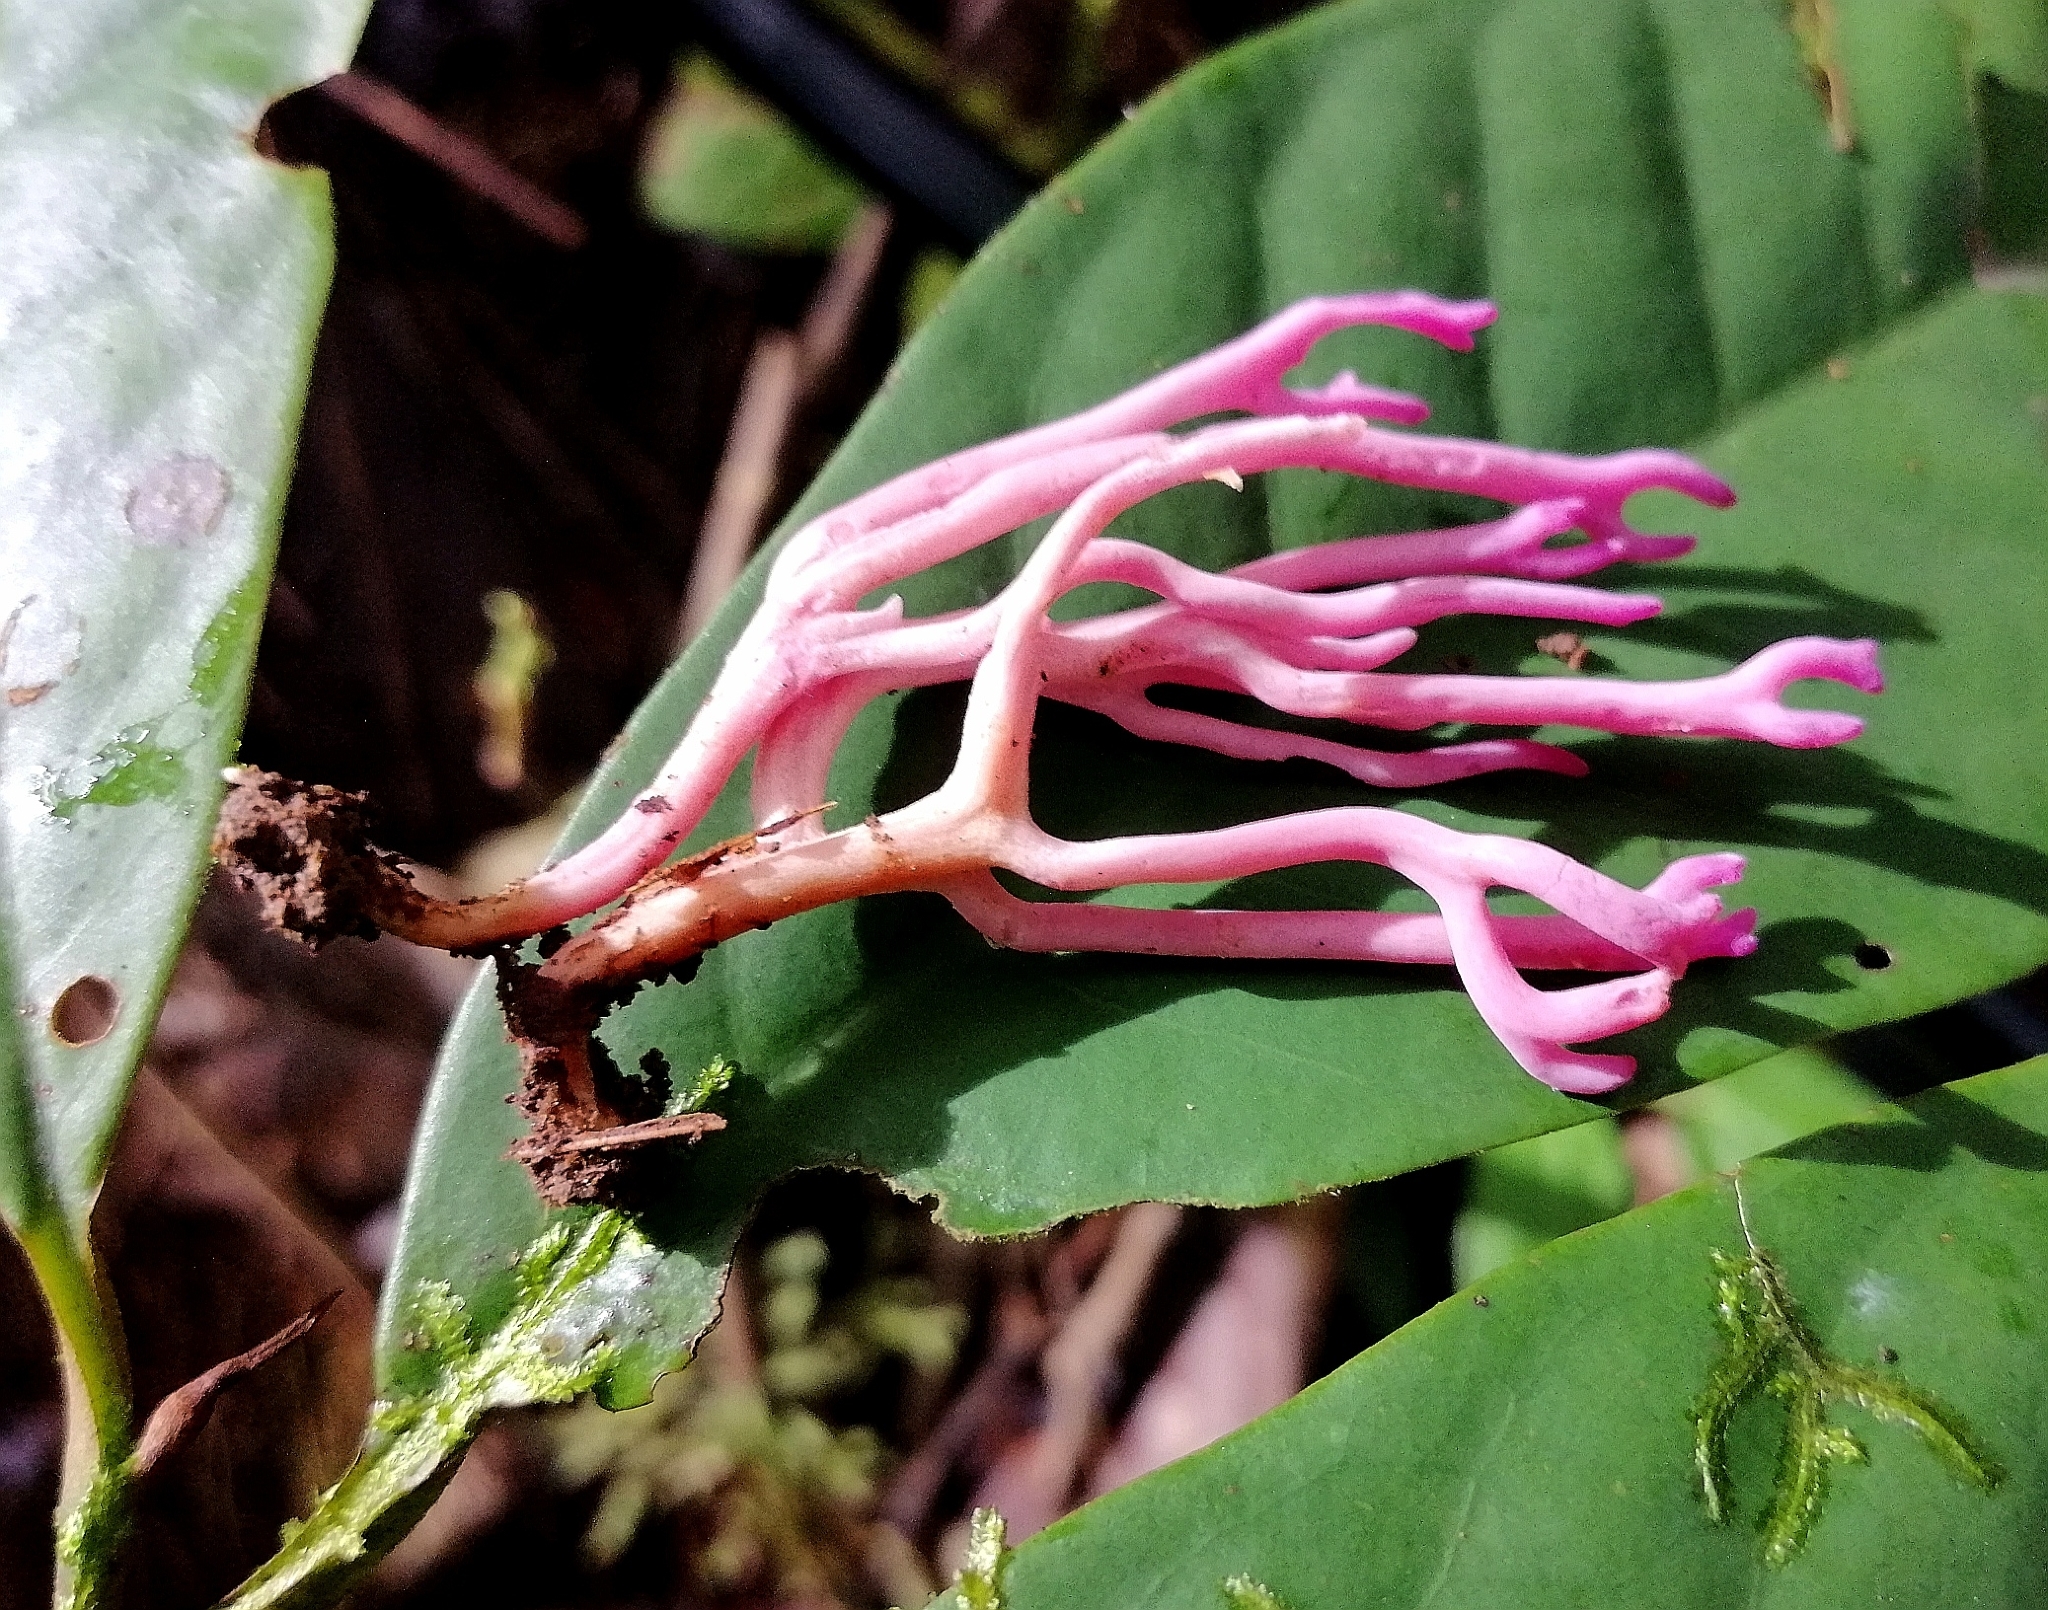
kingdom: Fungi
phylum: Basidiomycota
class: Agaricomycetes
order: Agaricales
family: Clavariaceae
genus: Clavaria
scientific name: Clavaria zollingeri
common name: Violet coral
